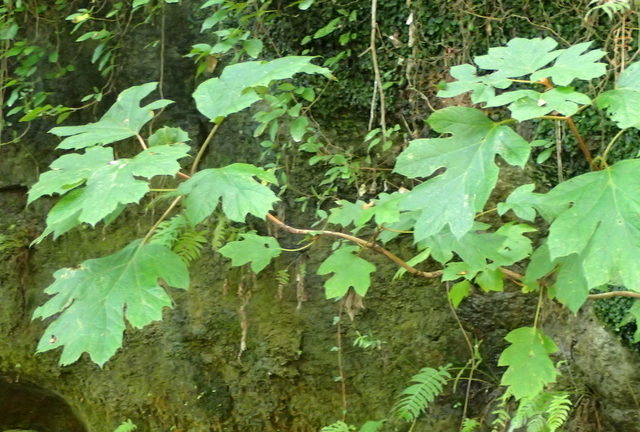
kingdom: Plantae
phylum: Tracheophyta
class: Magnoliopsida
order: Cornales
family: Hydrangeaceae
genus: Hydrangea
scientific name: Hydrangea quercifolia
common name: Oak-leaf hydrangea
